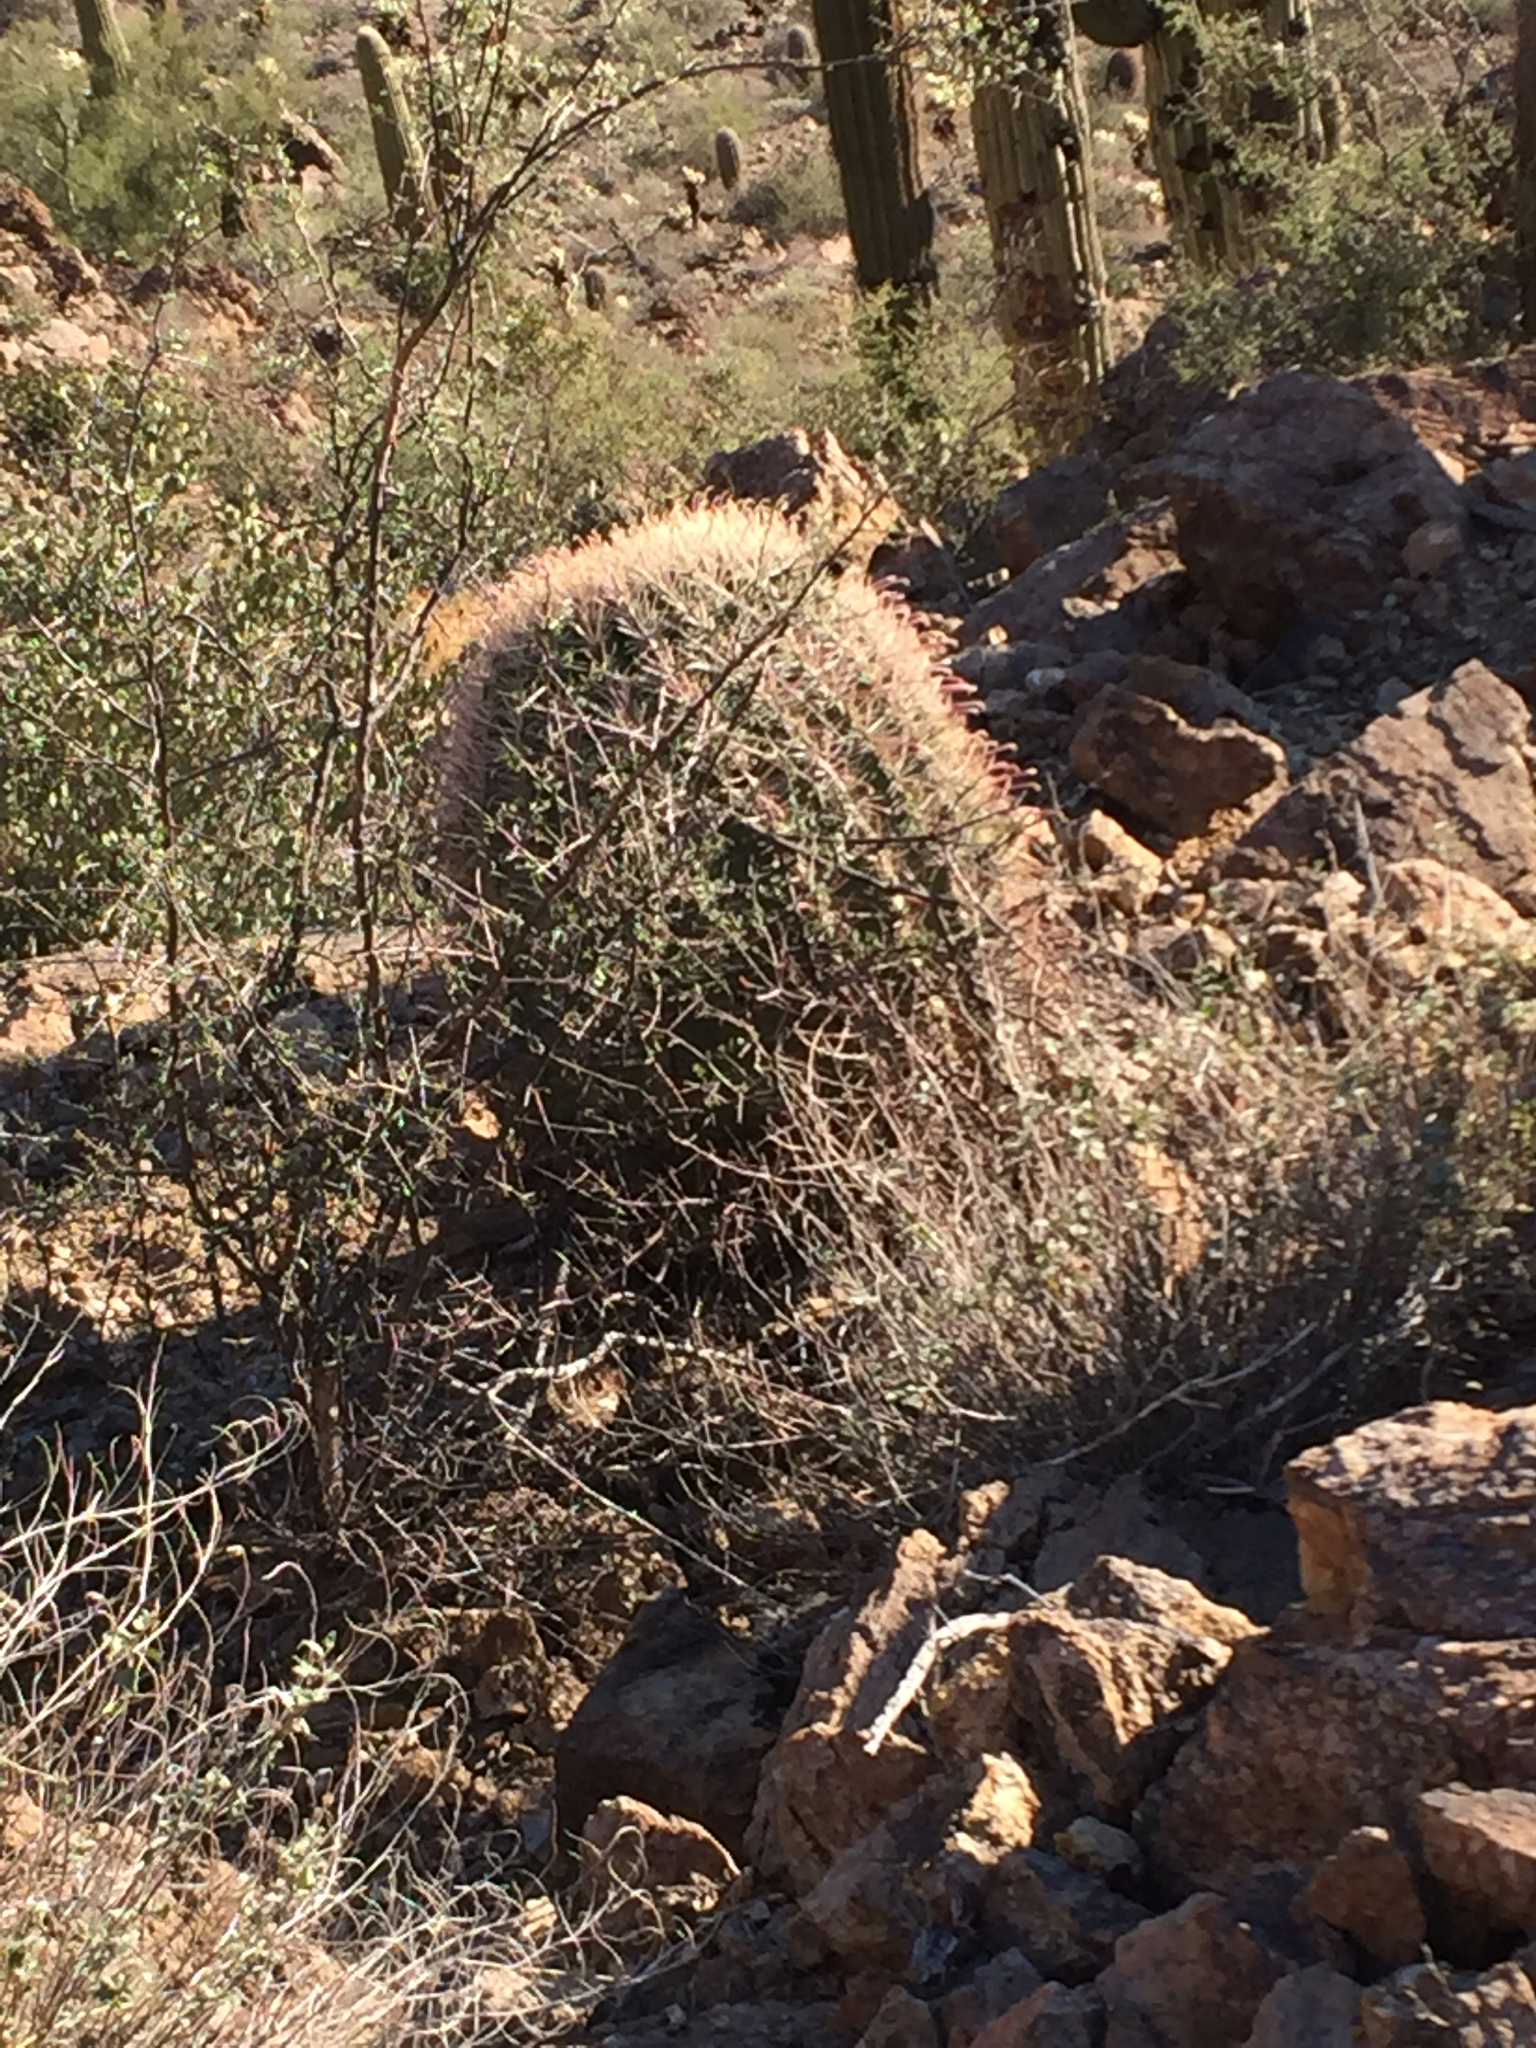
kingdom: Plantae
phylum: Tracheophyta
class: Magnoliopsida
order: Caryophyllales
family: Cactaceae
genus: Ferocactus
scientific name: Ferocactus wislizeni
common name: Candy barrel cactus
